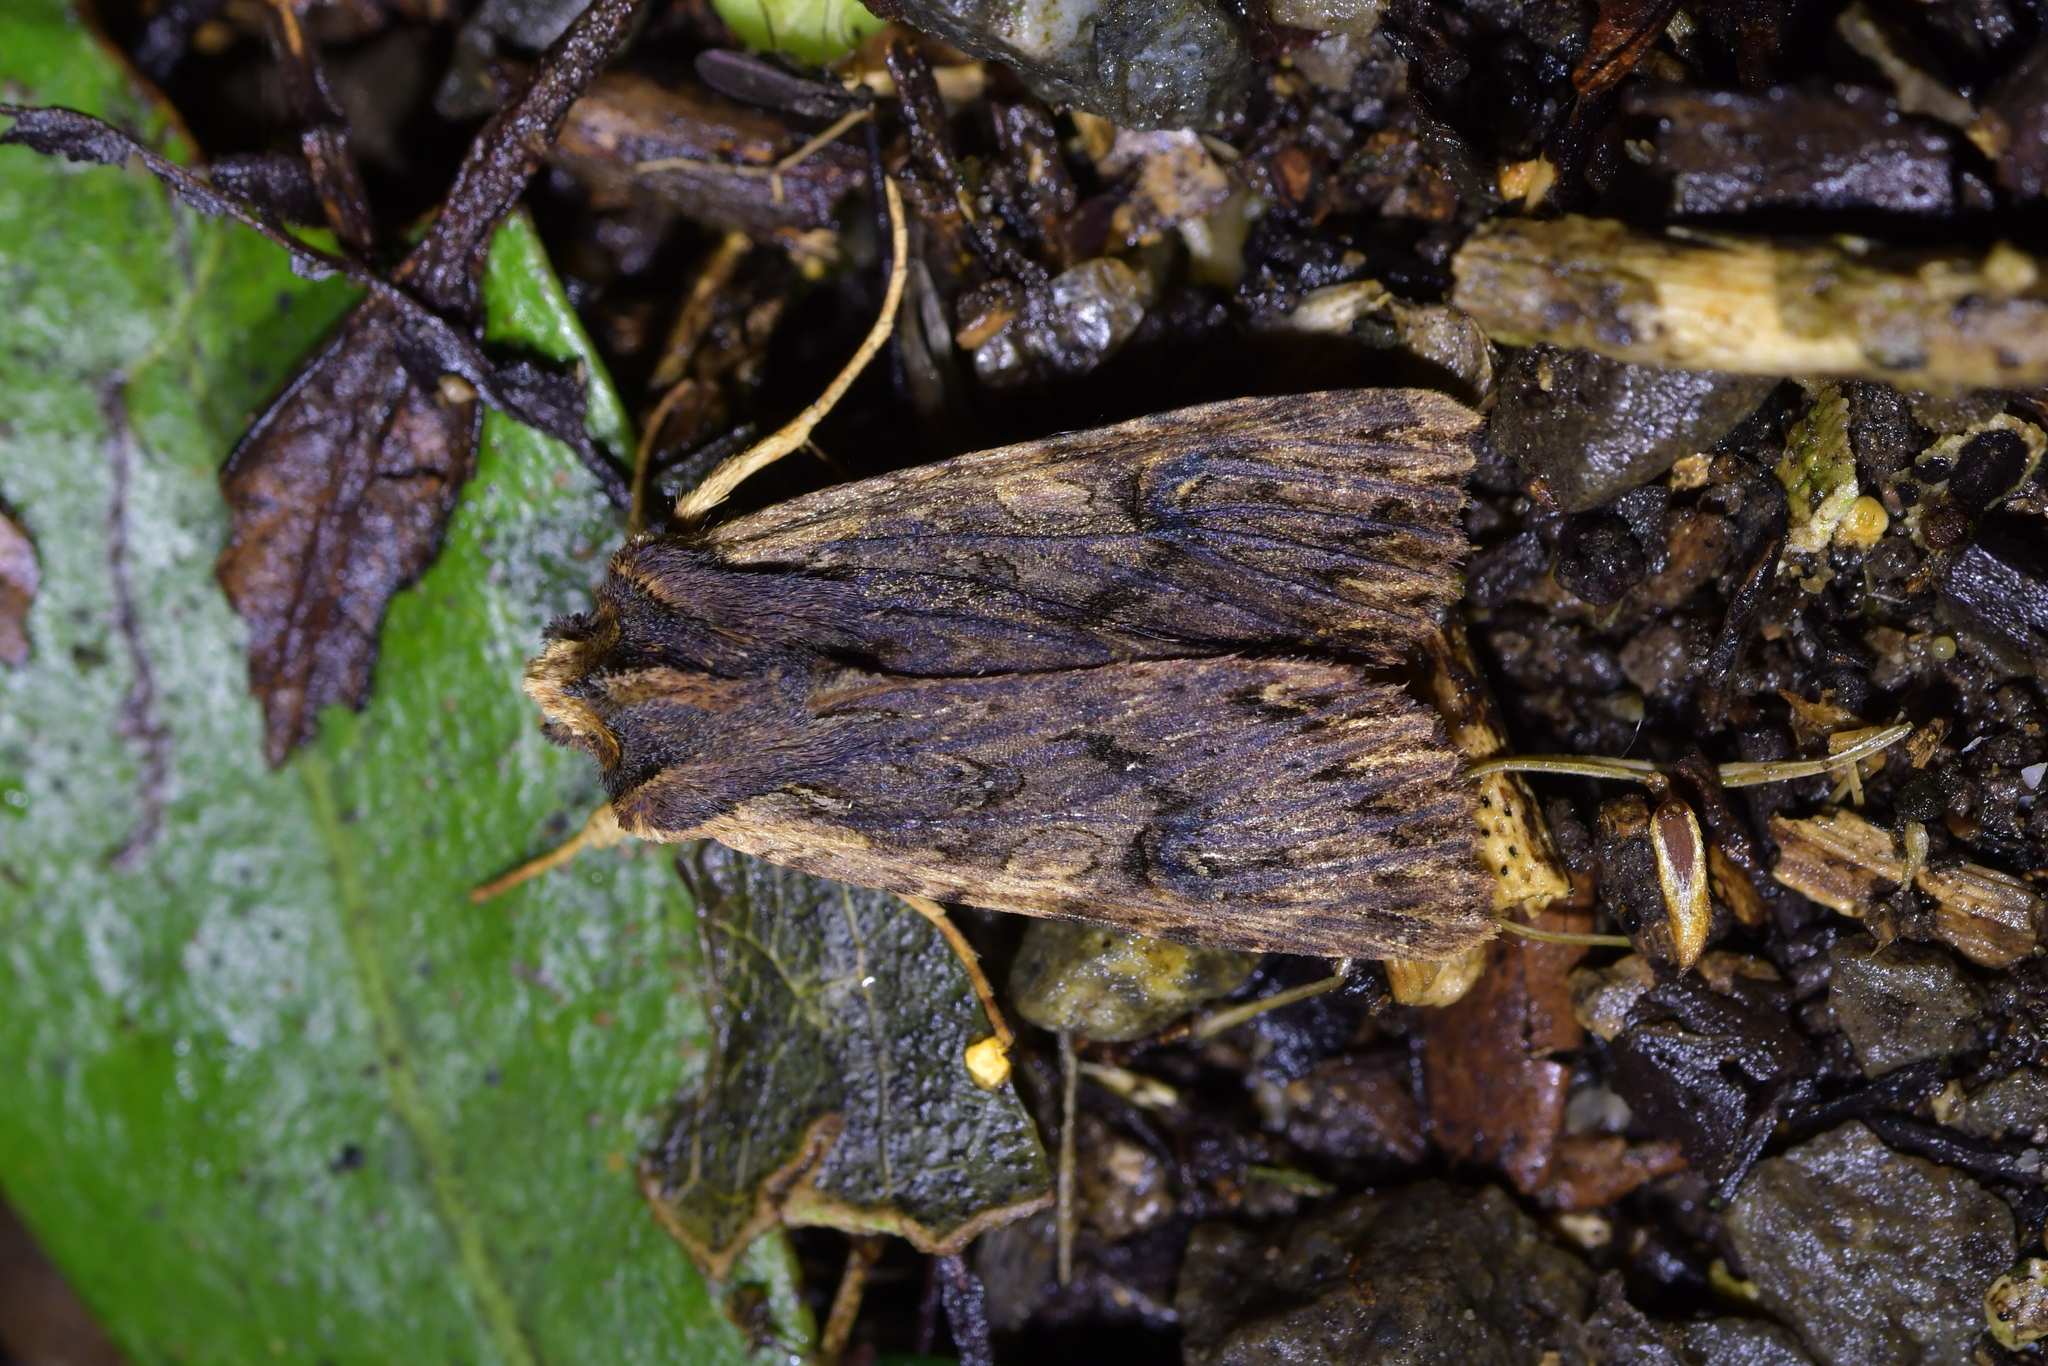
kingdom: Animalia
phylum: Arthropoda
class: Insecta
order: Lepidoptera
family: Noctuidae
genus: Meterana
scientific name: Meterana alcyone
